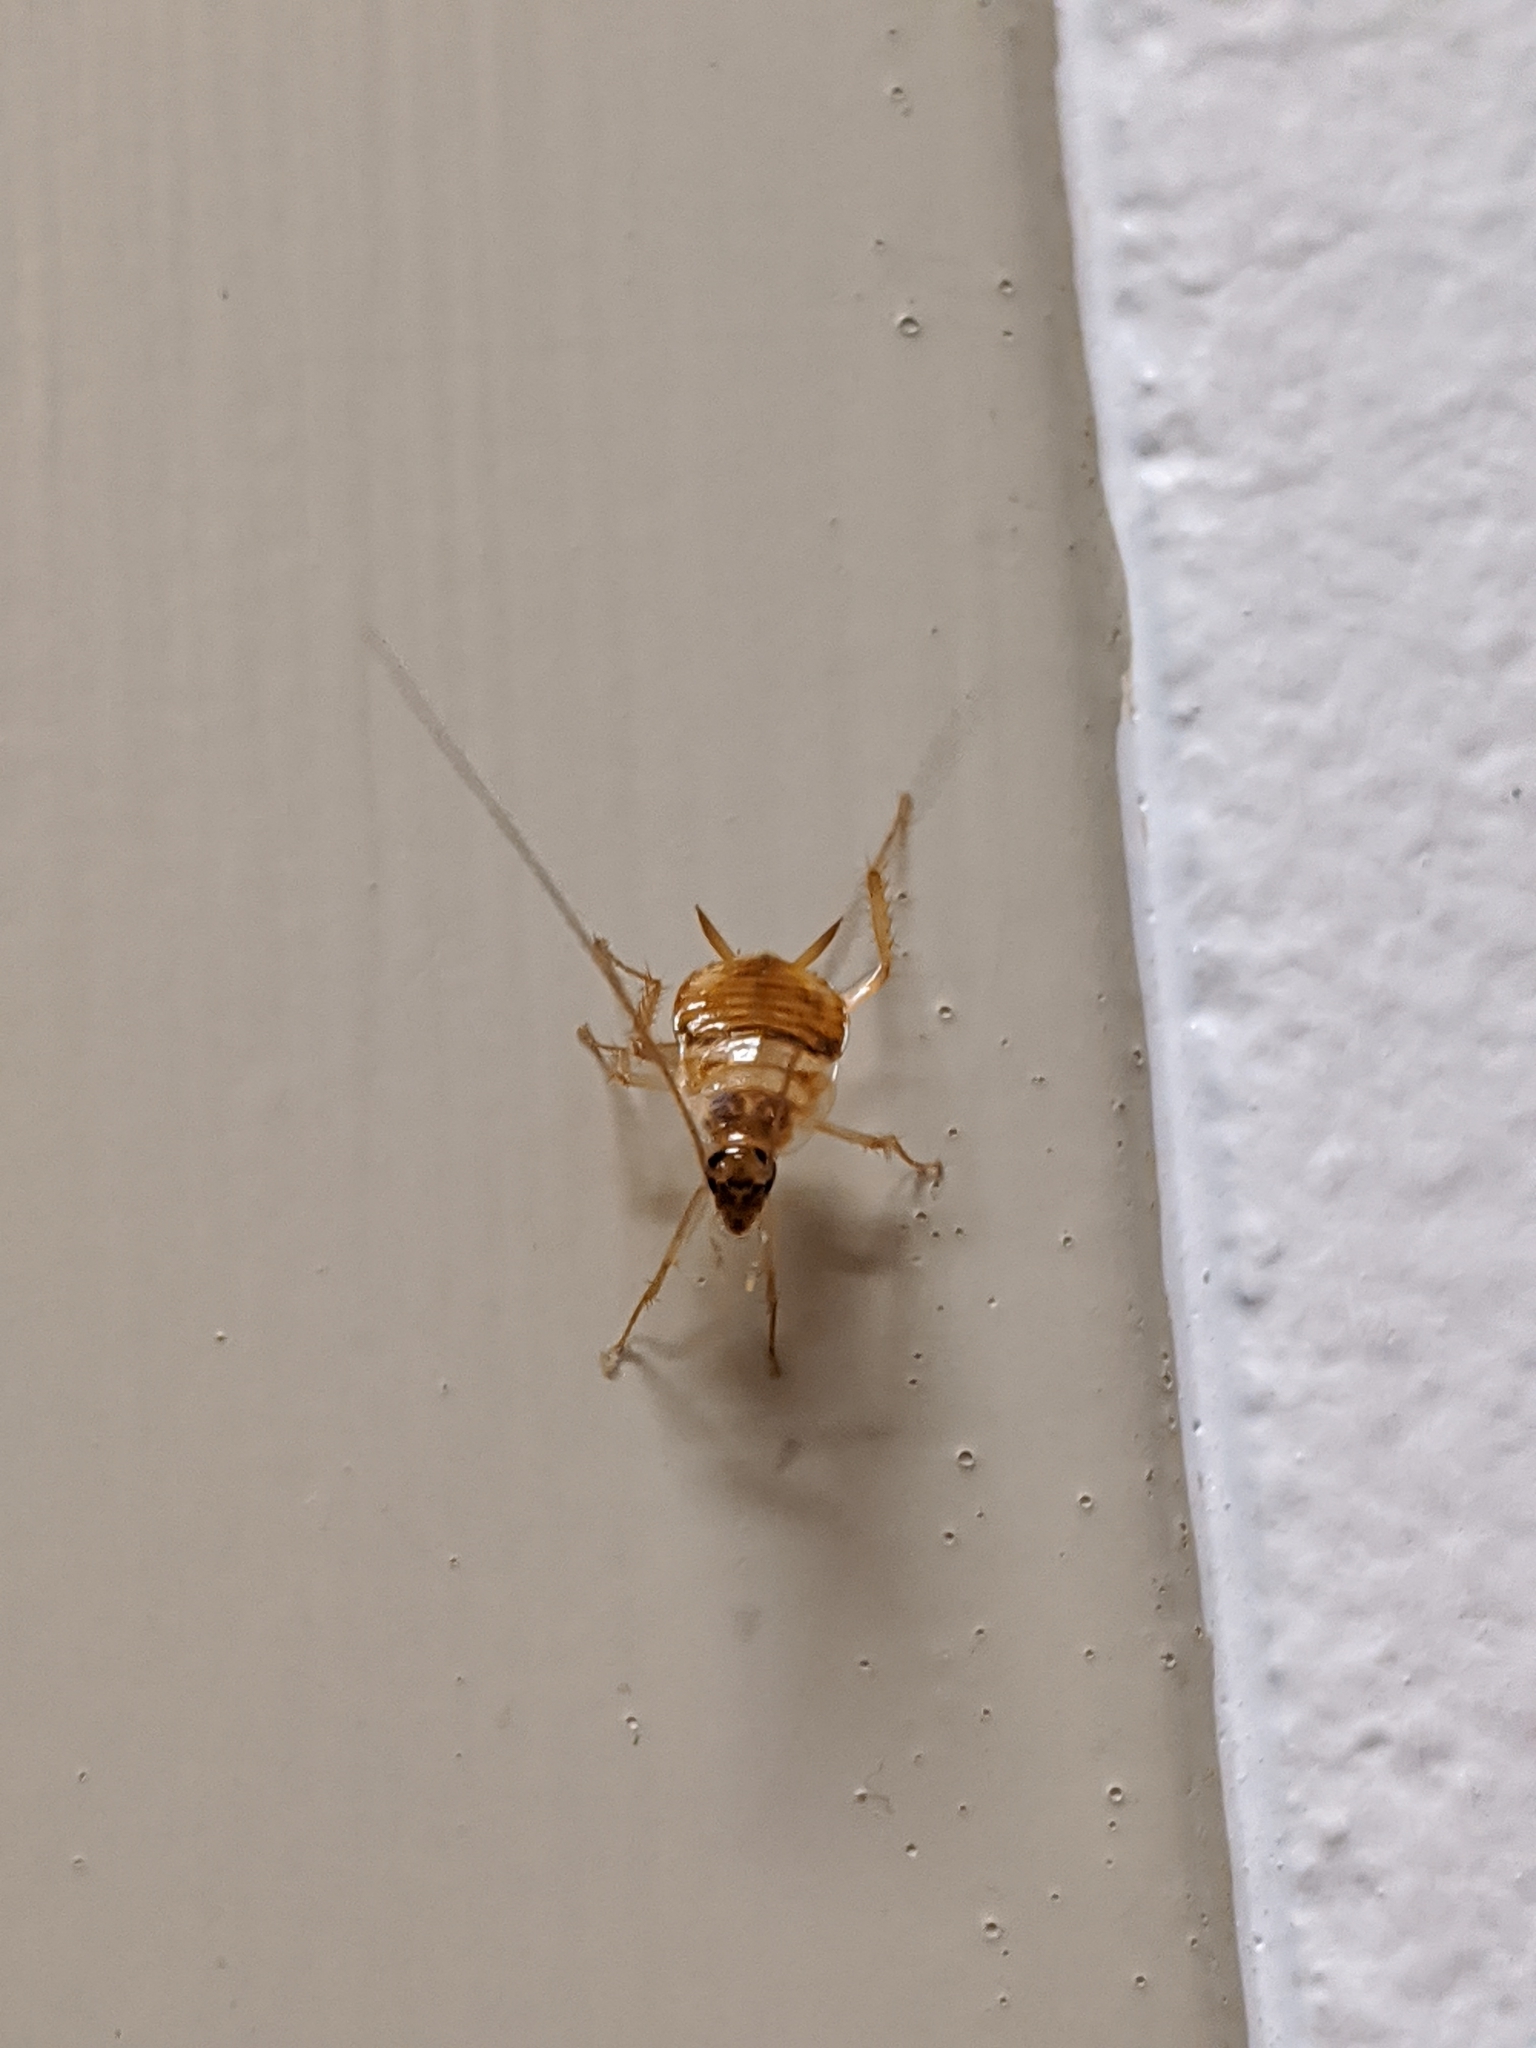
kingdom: Animalia
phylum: Arthropoda
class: Insecta
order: Blattodea
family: Ectobiidae
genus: Supella
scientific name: Supella longipalpa
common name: Brown-banded cockroach
